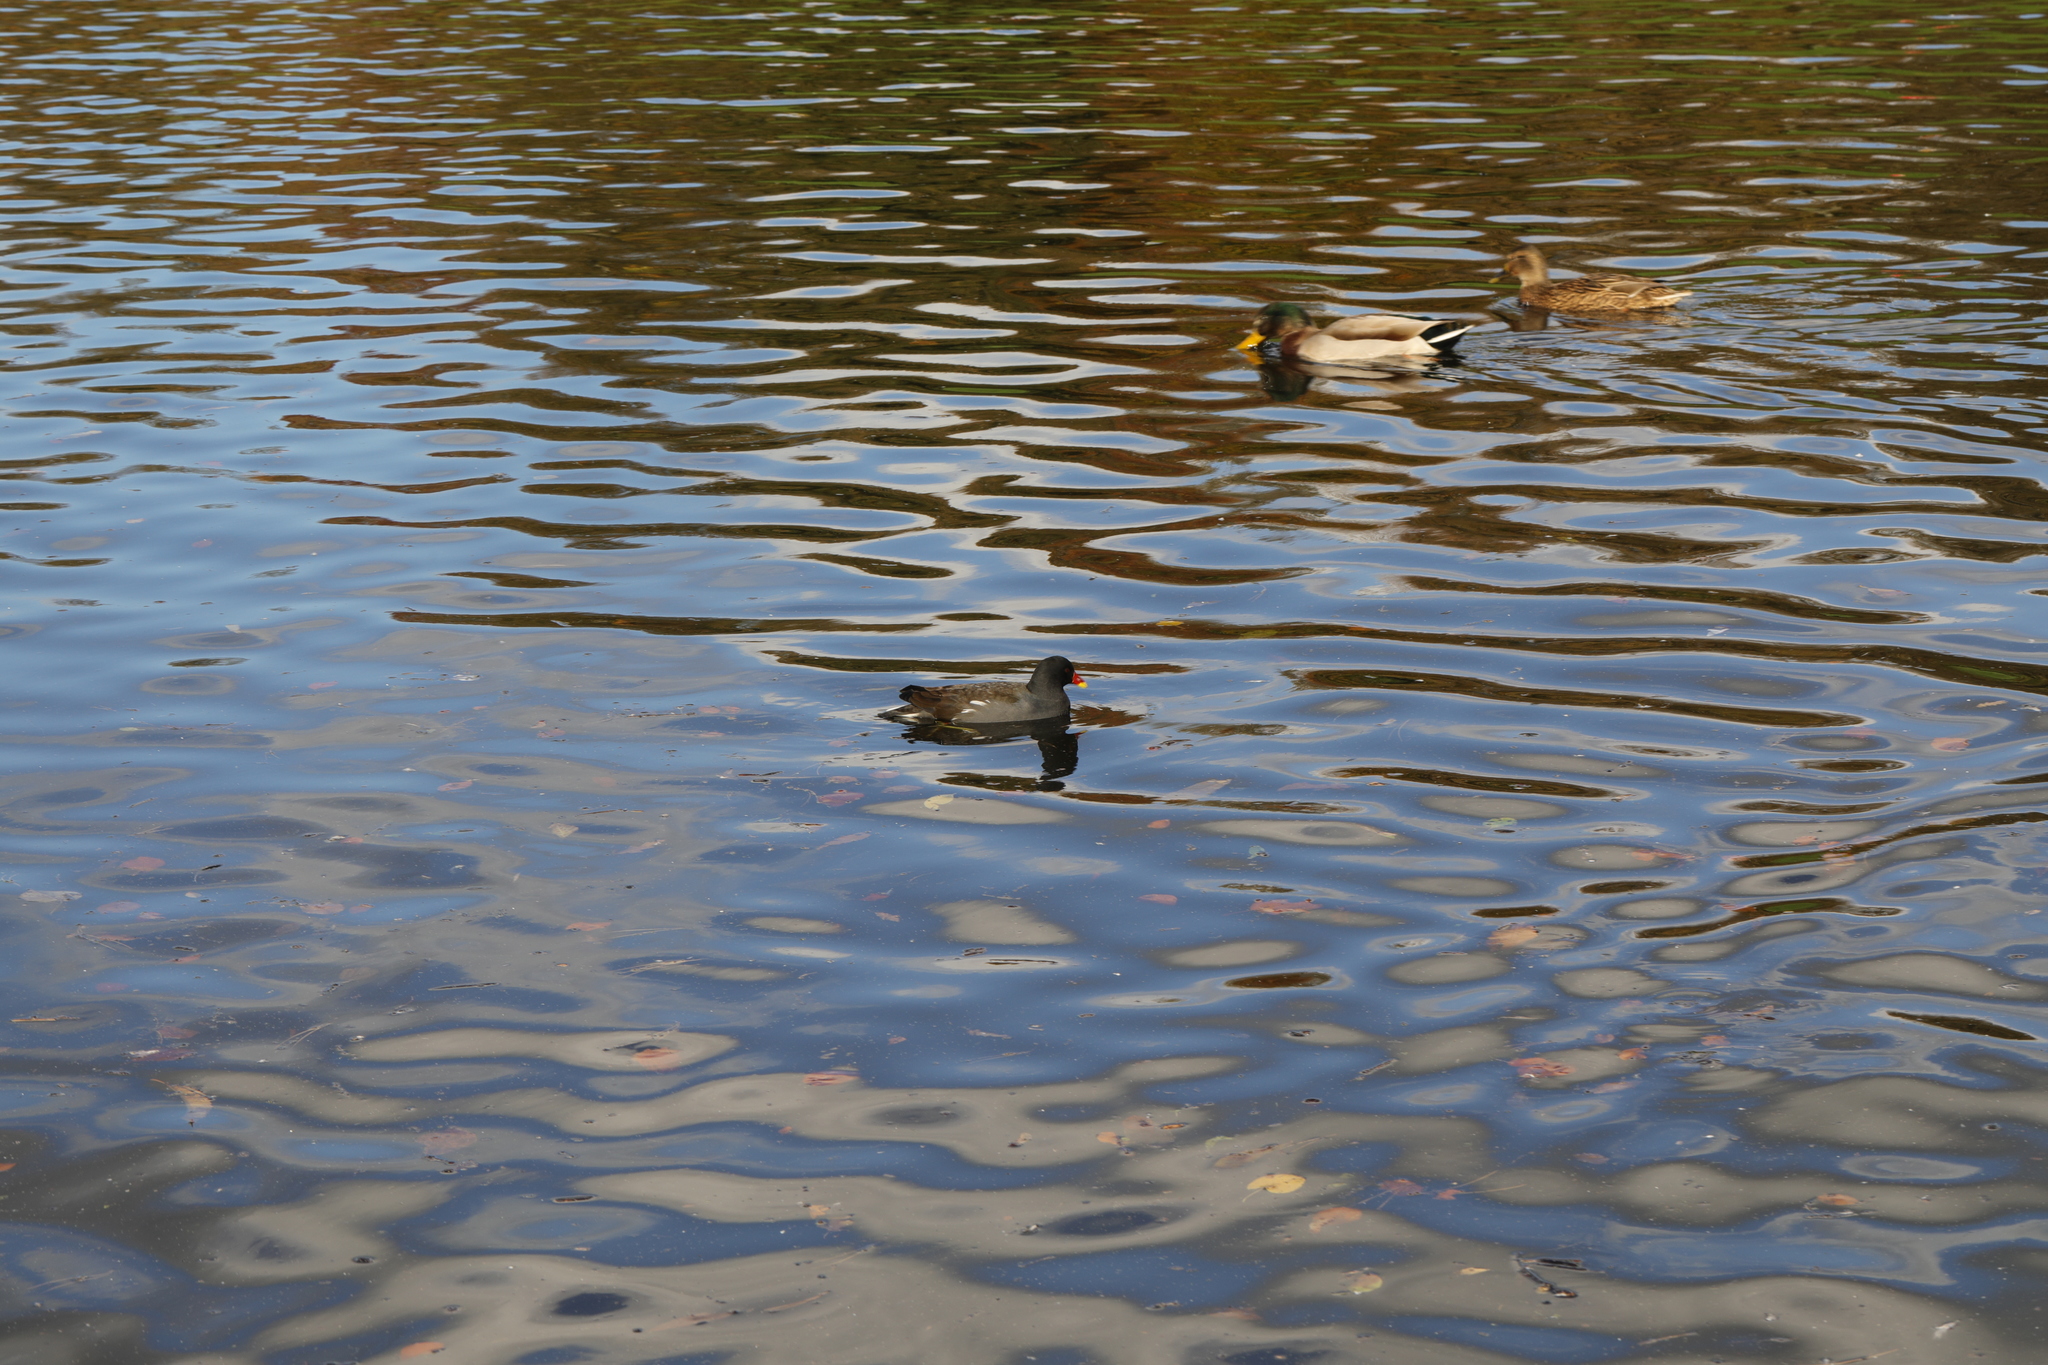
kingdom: Animalia
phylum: Chordata
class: Aves
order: Gruiformes
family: Rallidae
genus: Gallinula
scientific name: Gallinula chloropus
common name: Common moorhen
